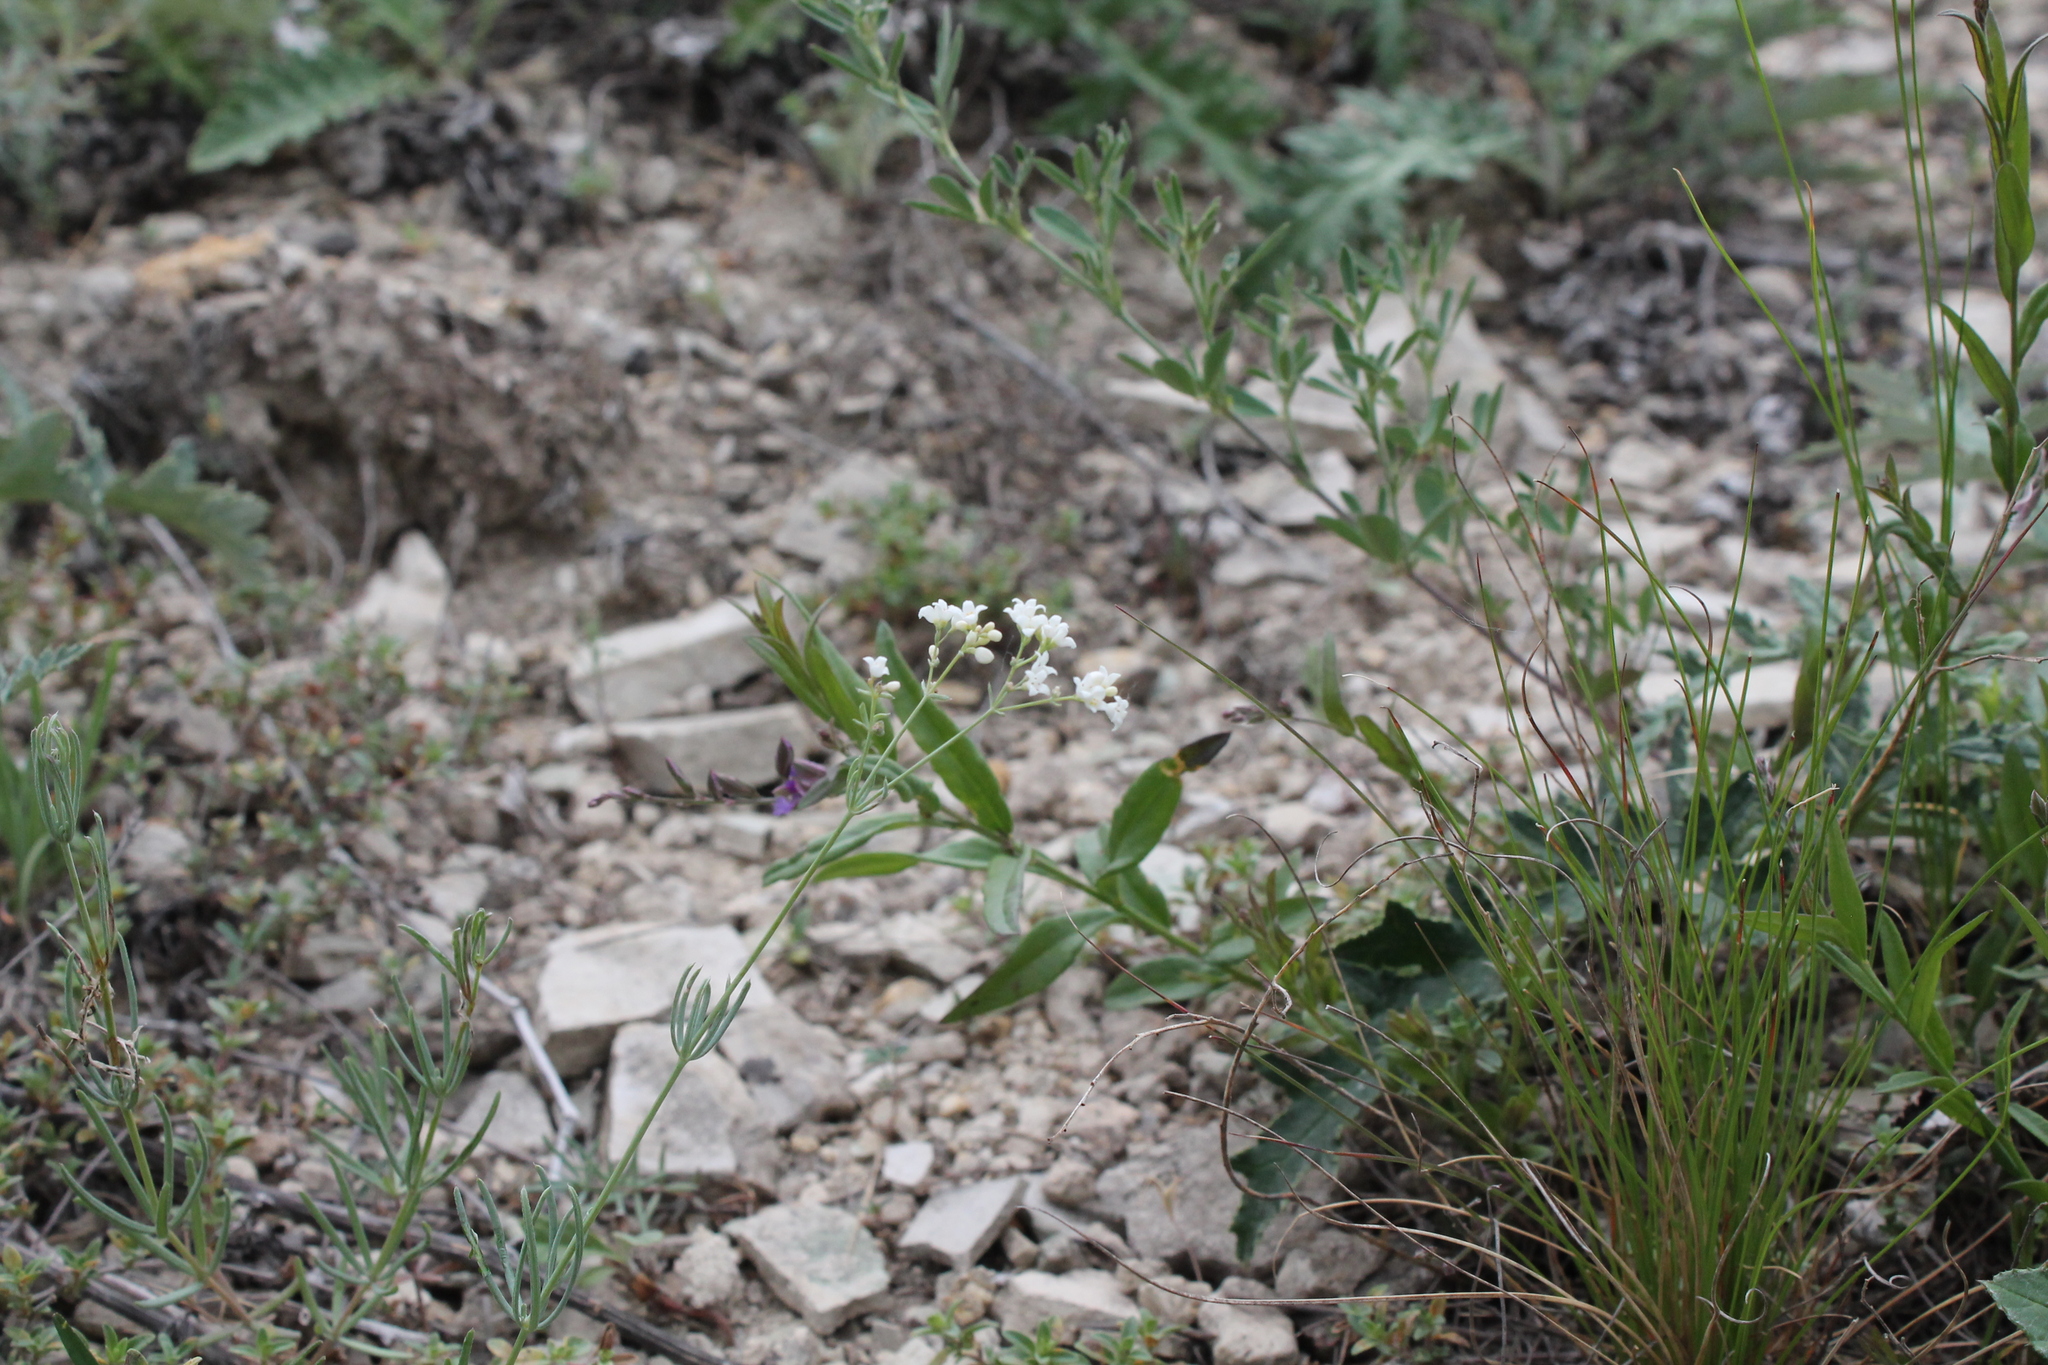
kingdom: Plantae
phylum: Tracheophyta
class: Magnoliopsida
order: Gentianales
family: Rubiaceae
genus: Galium
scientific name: Galium octonarium
